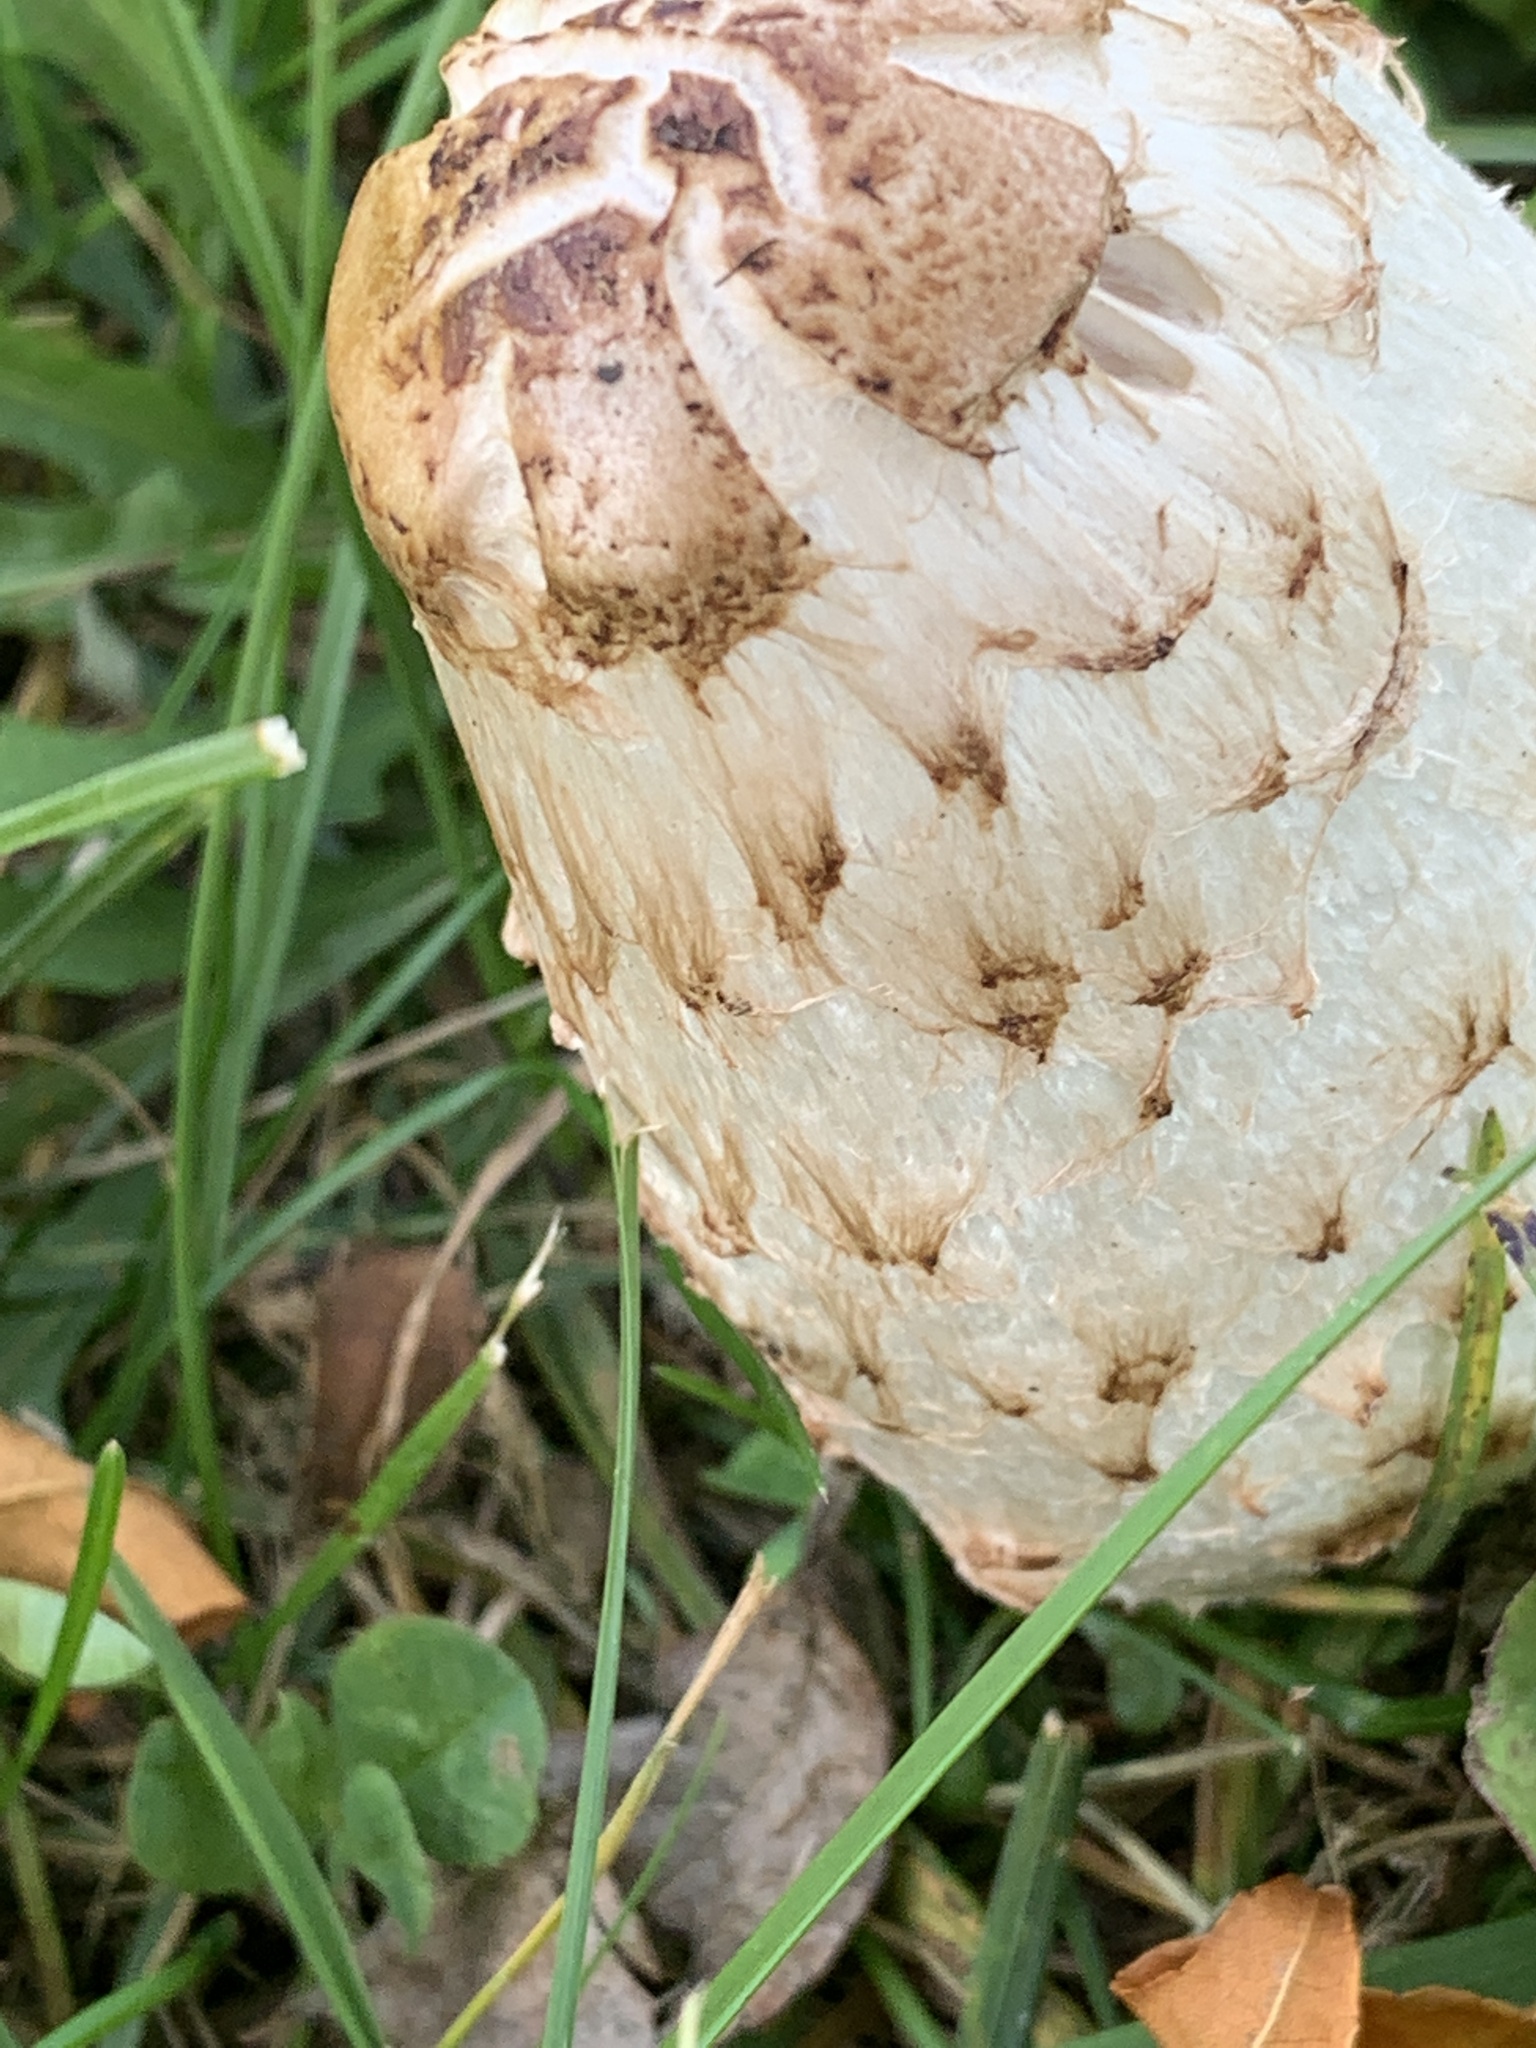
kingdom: Fungi
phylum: Basidiomycota
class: Agaricomycetes
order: Agaricales
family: Agaricaceae
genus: Coprinus
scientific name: Coprinus comatus
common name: Lawyer's wig
